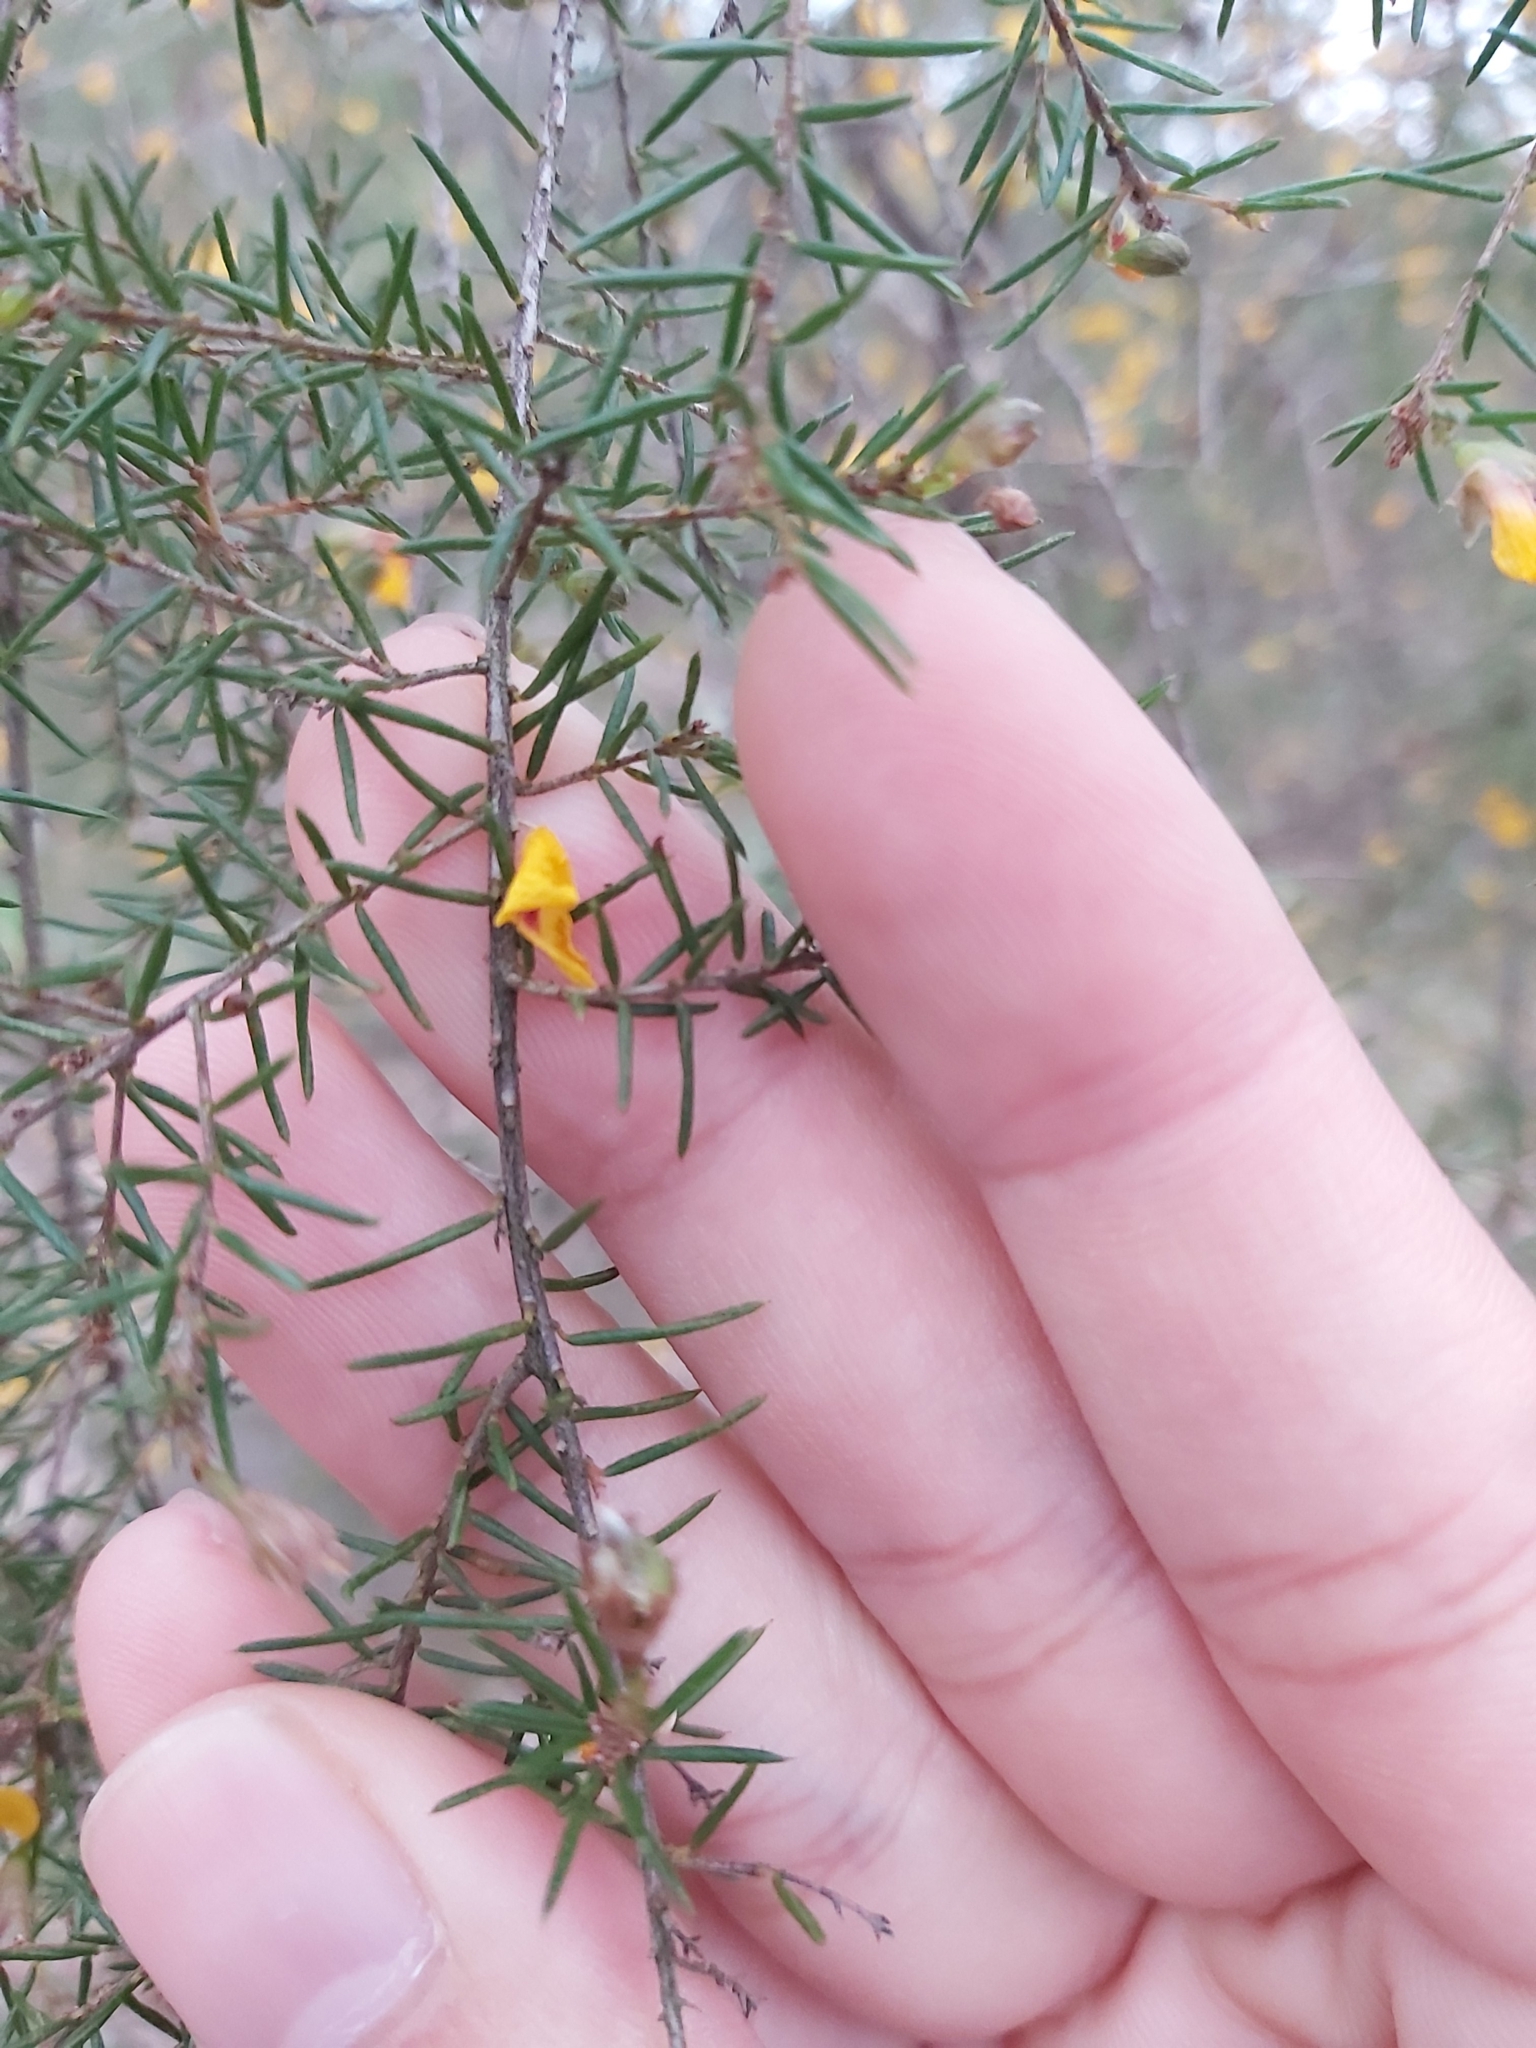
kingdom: Plantae
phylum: Tracheophyta
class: Magnoliopsida
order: Fabales
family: Fabaceae
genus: Dillwynia
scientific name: Dillwynia retorta
